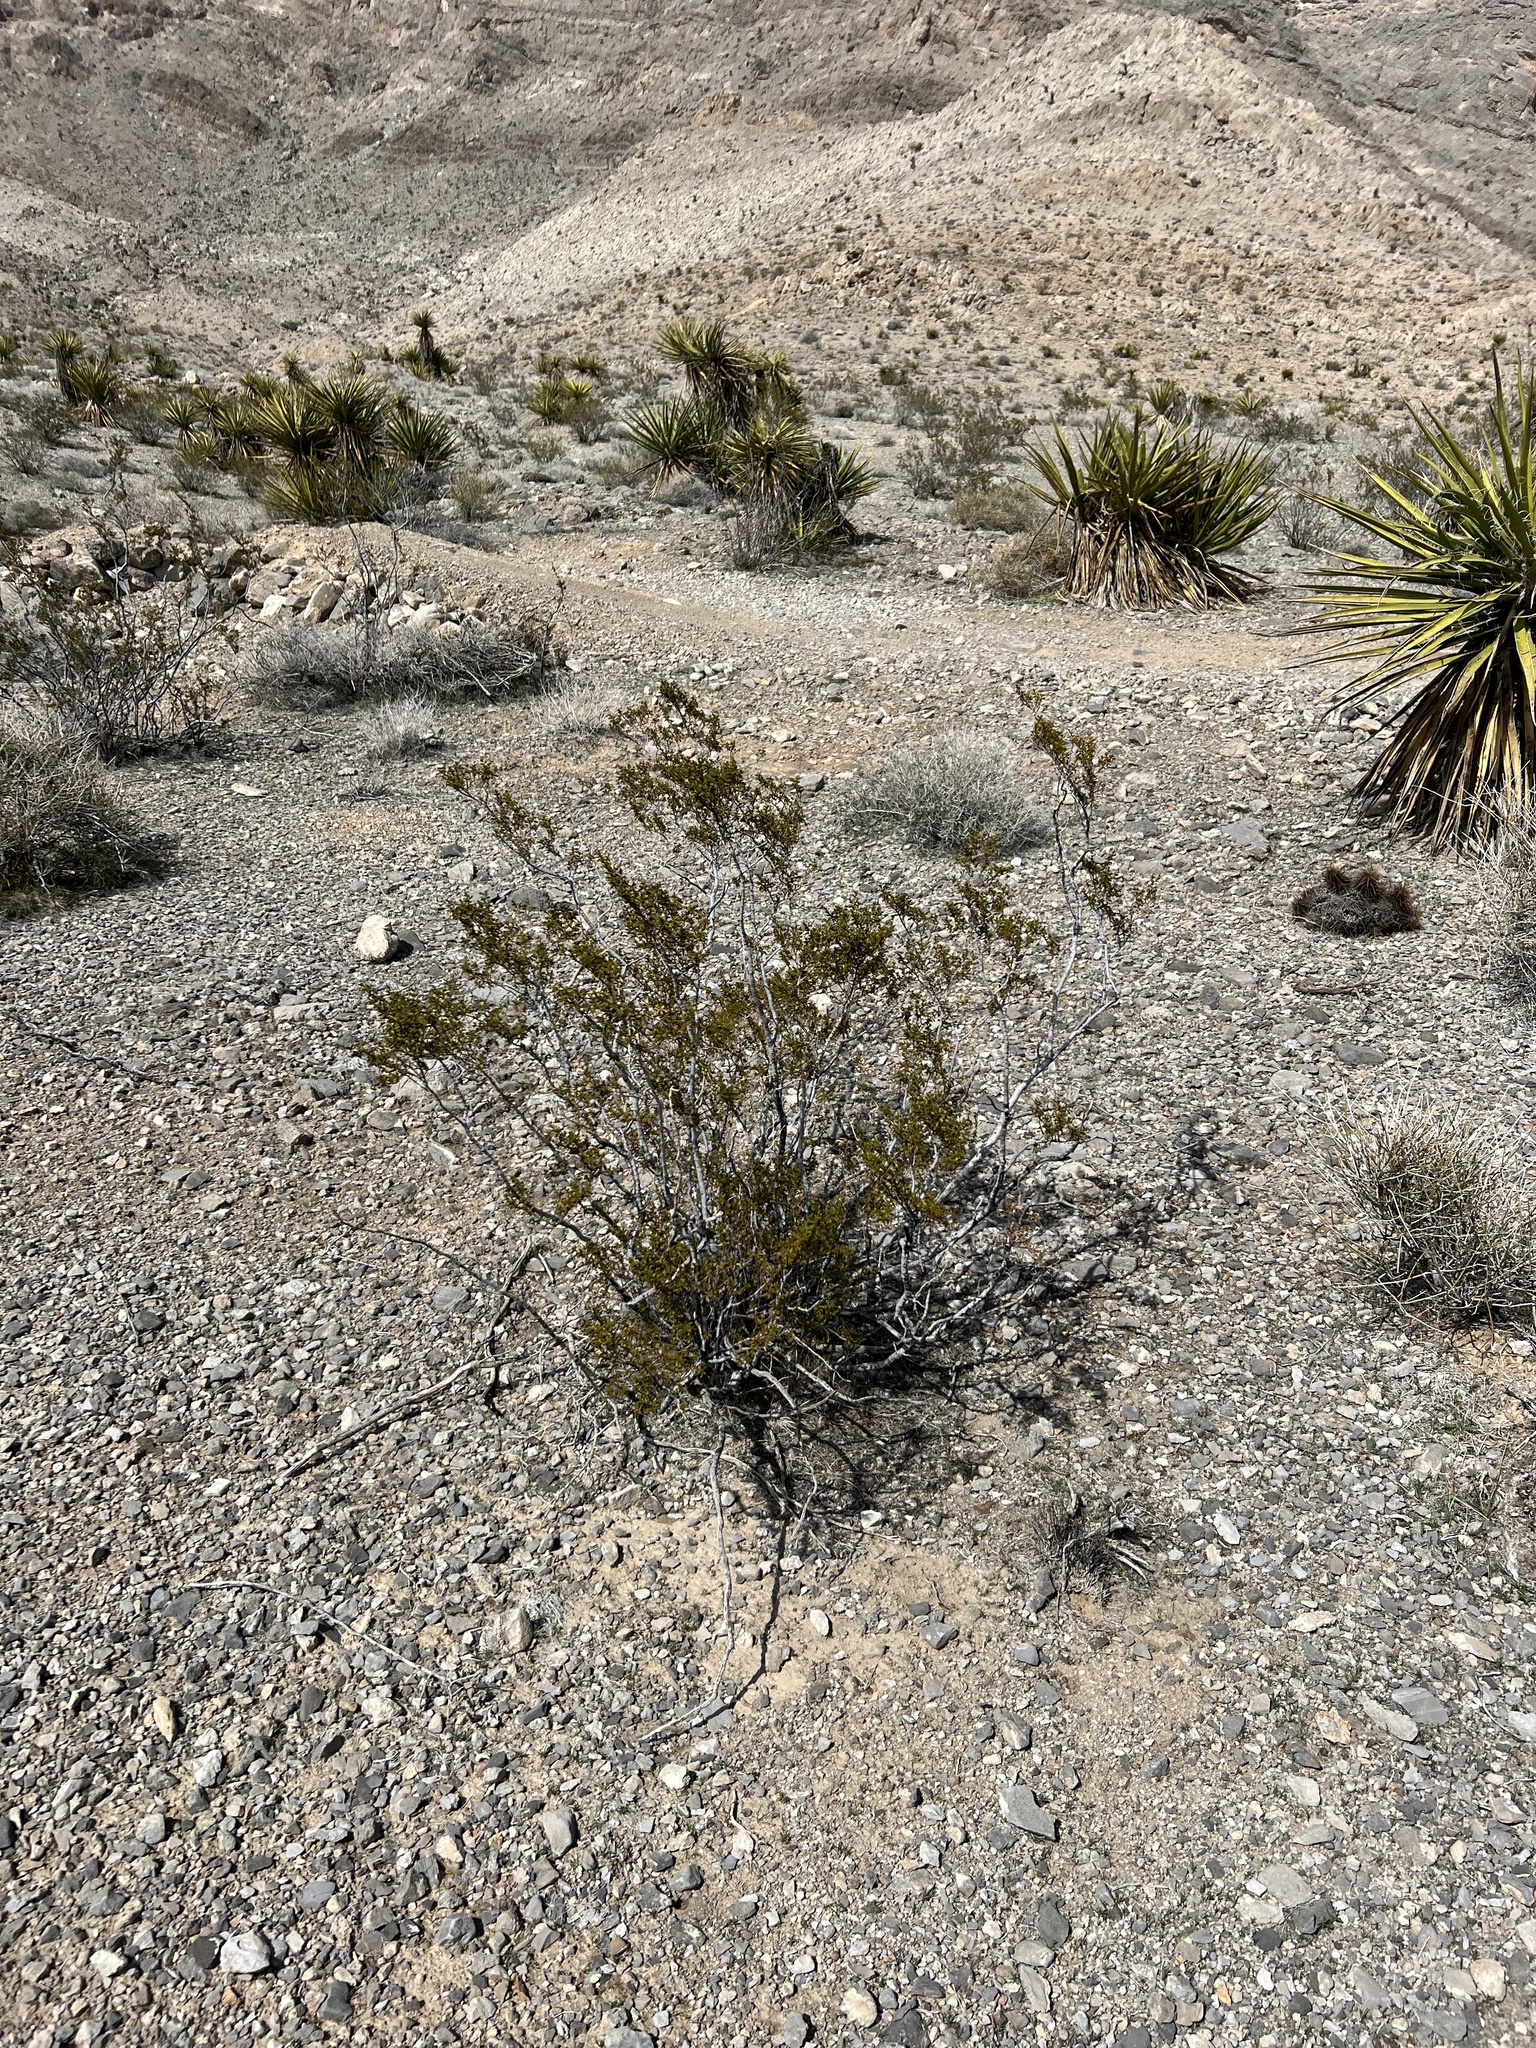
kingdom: Plantae
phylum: Tracheophyta
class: Magnoliopsida
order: Zygophyllales
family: Zygophyllaceae
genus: Larrea
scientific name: Larrea tridentata
